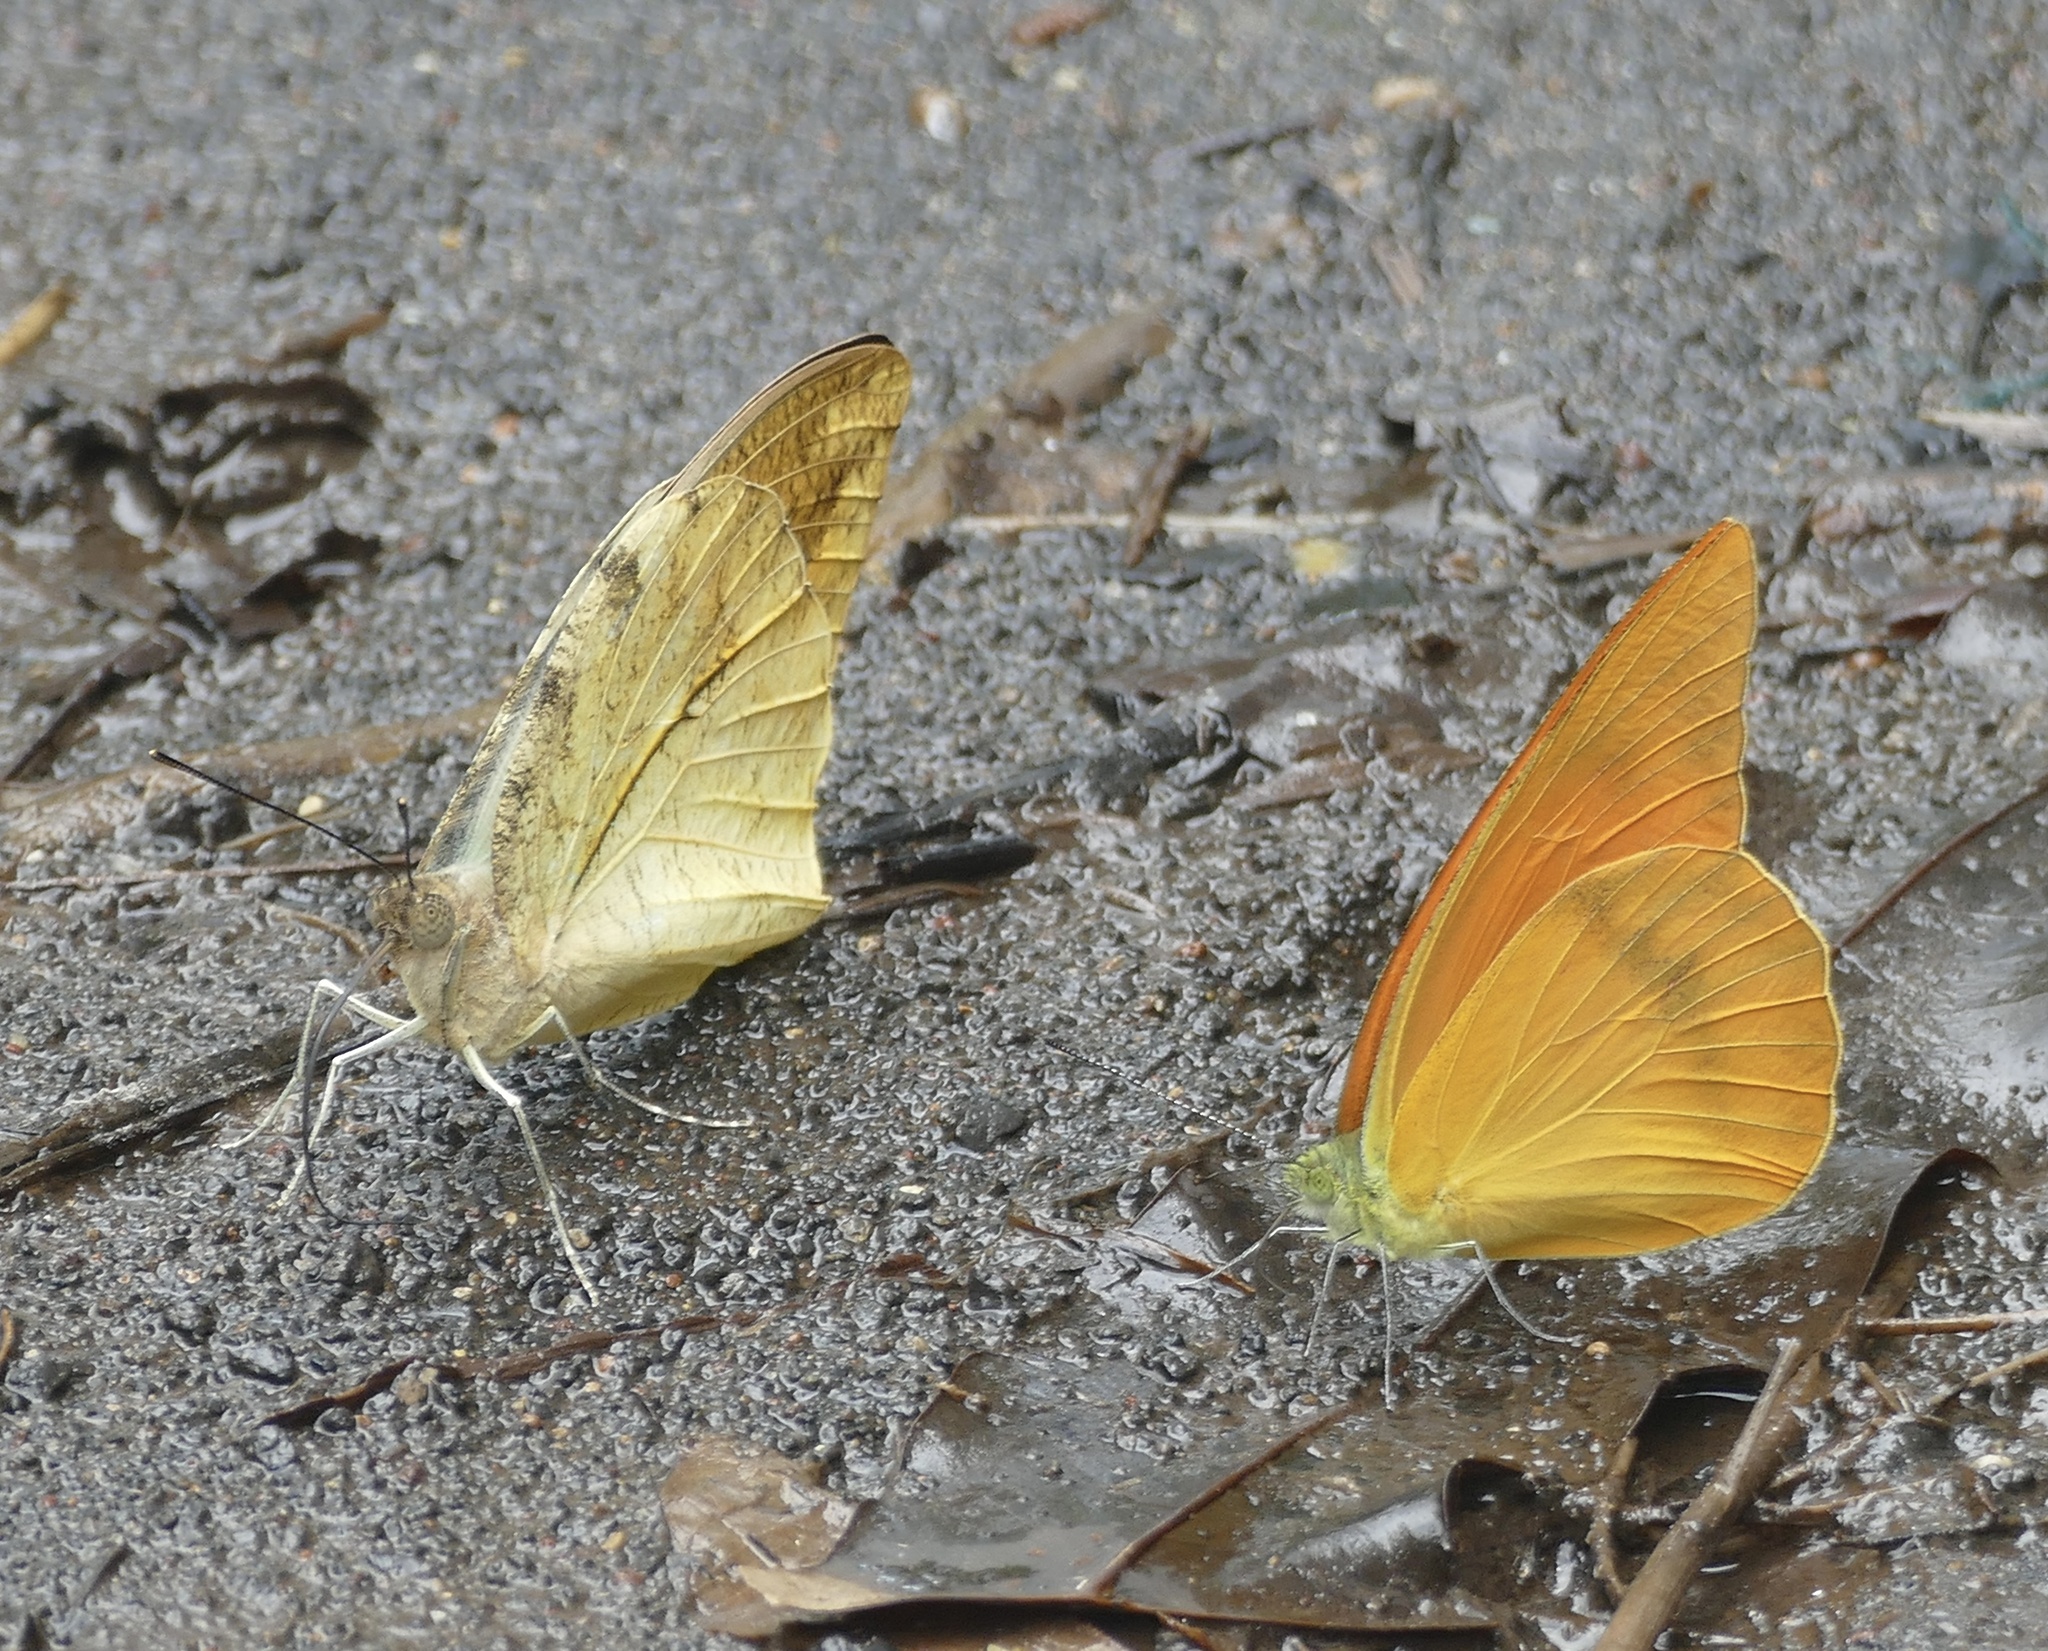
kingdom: Animalia
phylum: Arthropoda
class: Insecta
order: Lepidoptera
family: Pieridae
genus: Appias
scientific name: Appias zarinda
